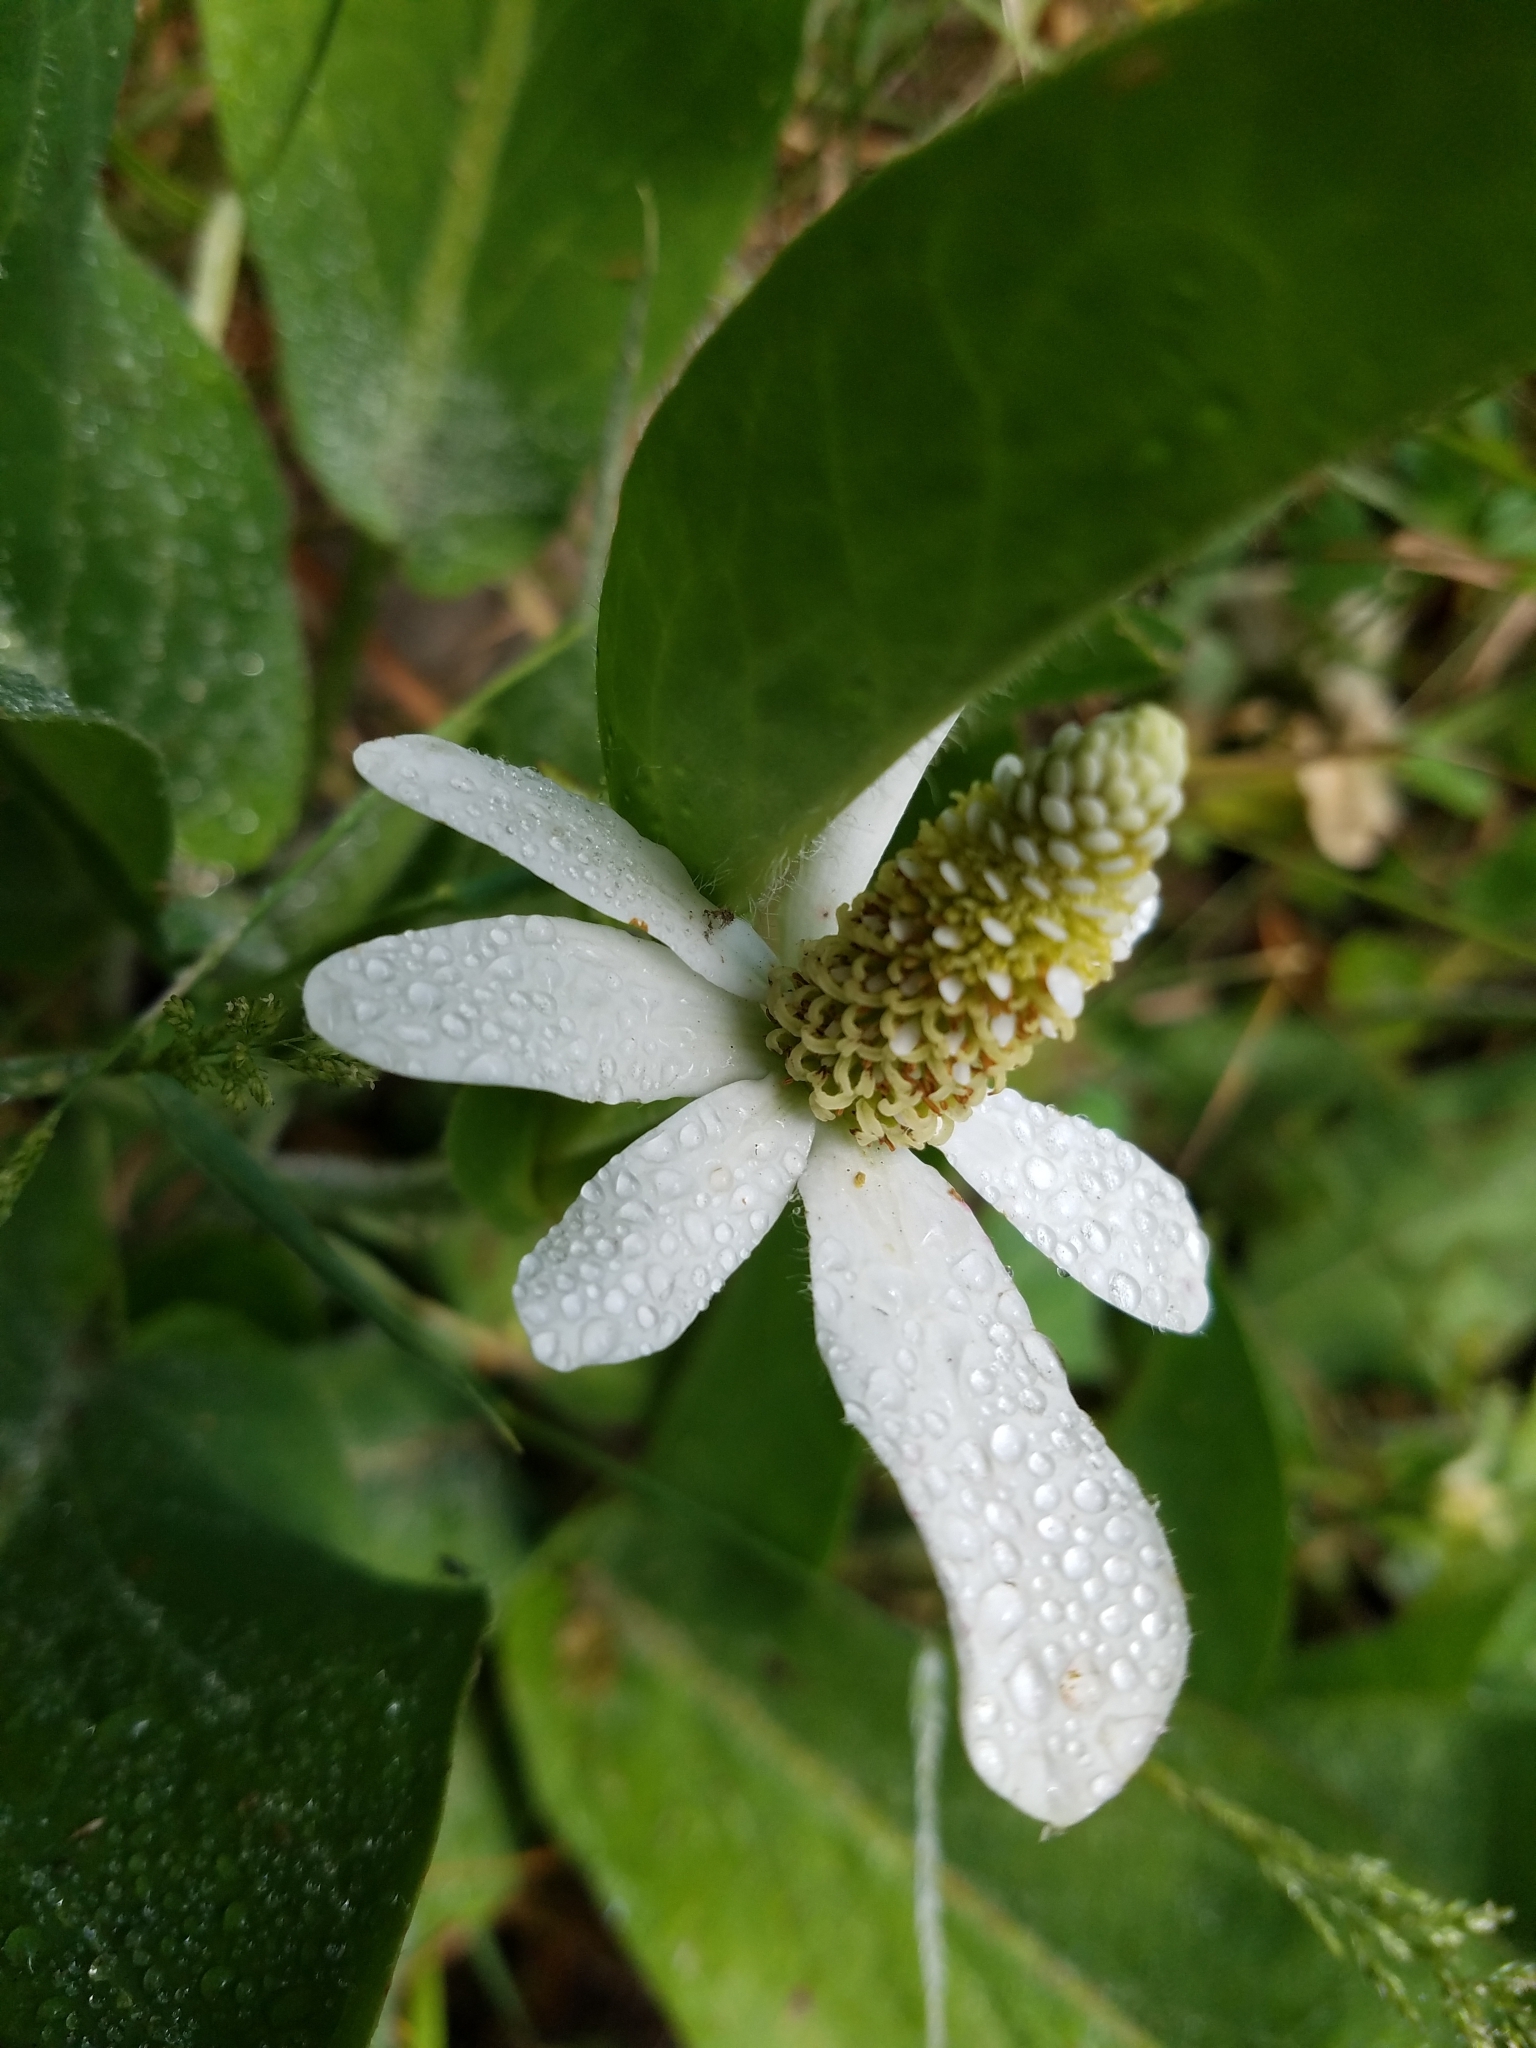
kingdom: Plantae
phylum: Tracheophyta
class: Magnoliopsida
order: Piperales
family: Saururaceae
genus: Anemopsis
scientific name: Anemopsis californica
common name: Apache-beads
